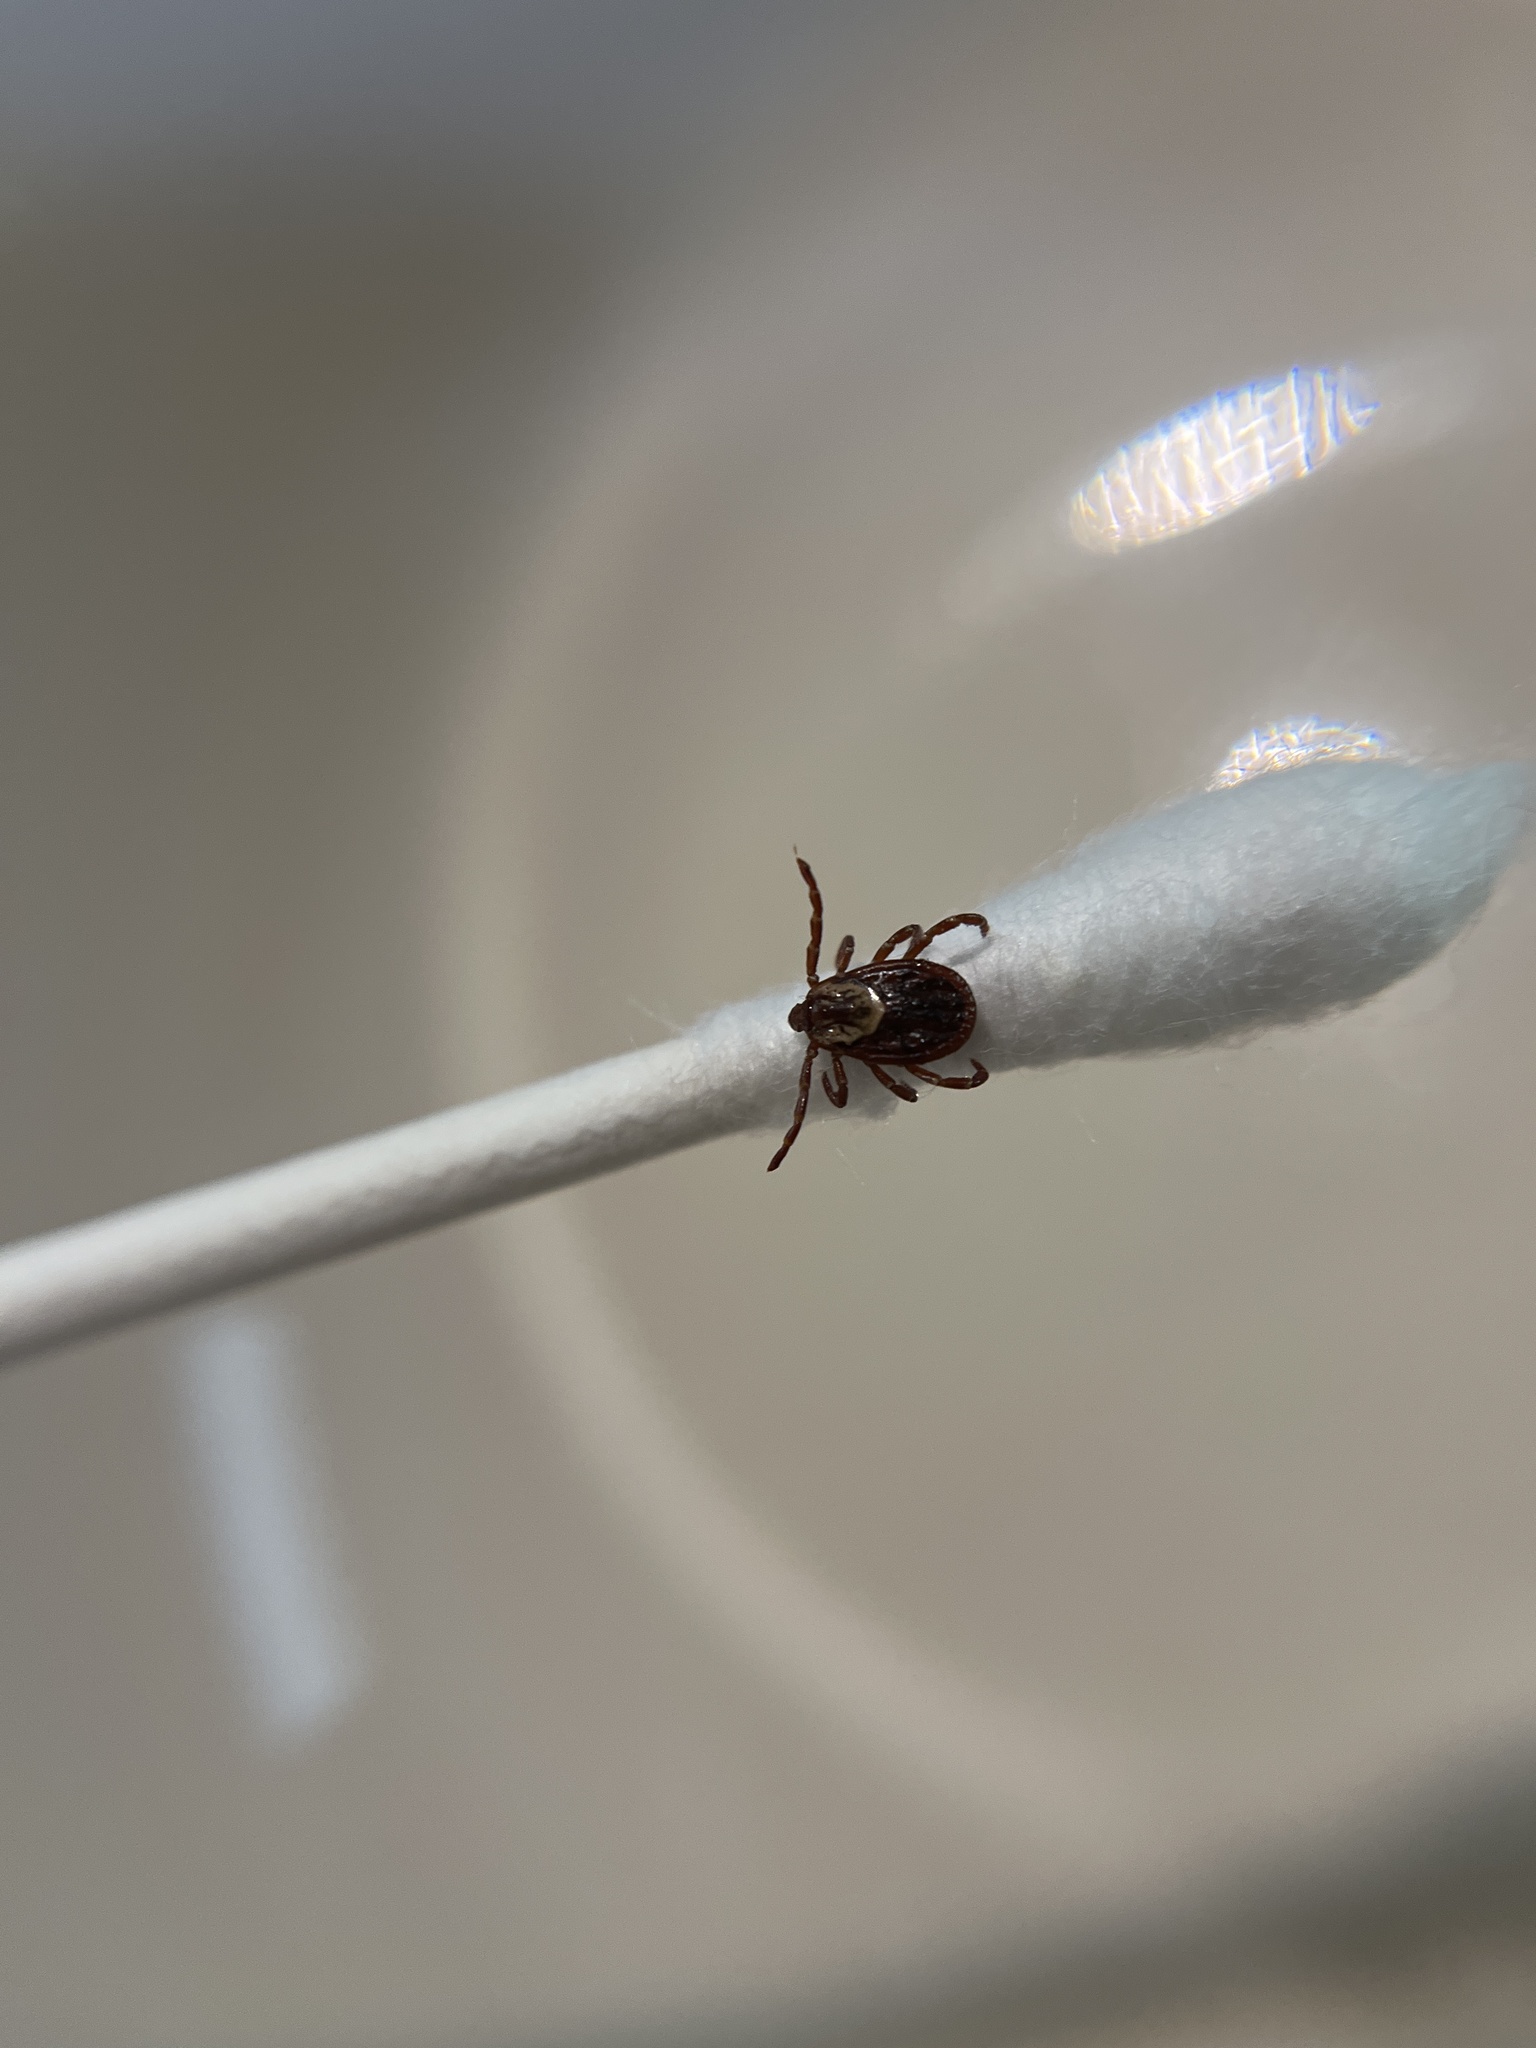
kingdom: Animalia
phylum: Arthropoda
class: Arachnida
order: Ixodida
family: Ixodidae
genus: Dermacentor
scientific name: Dermacentor variabilis
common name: American dog tick
